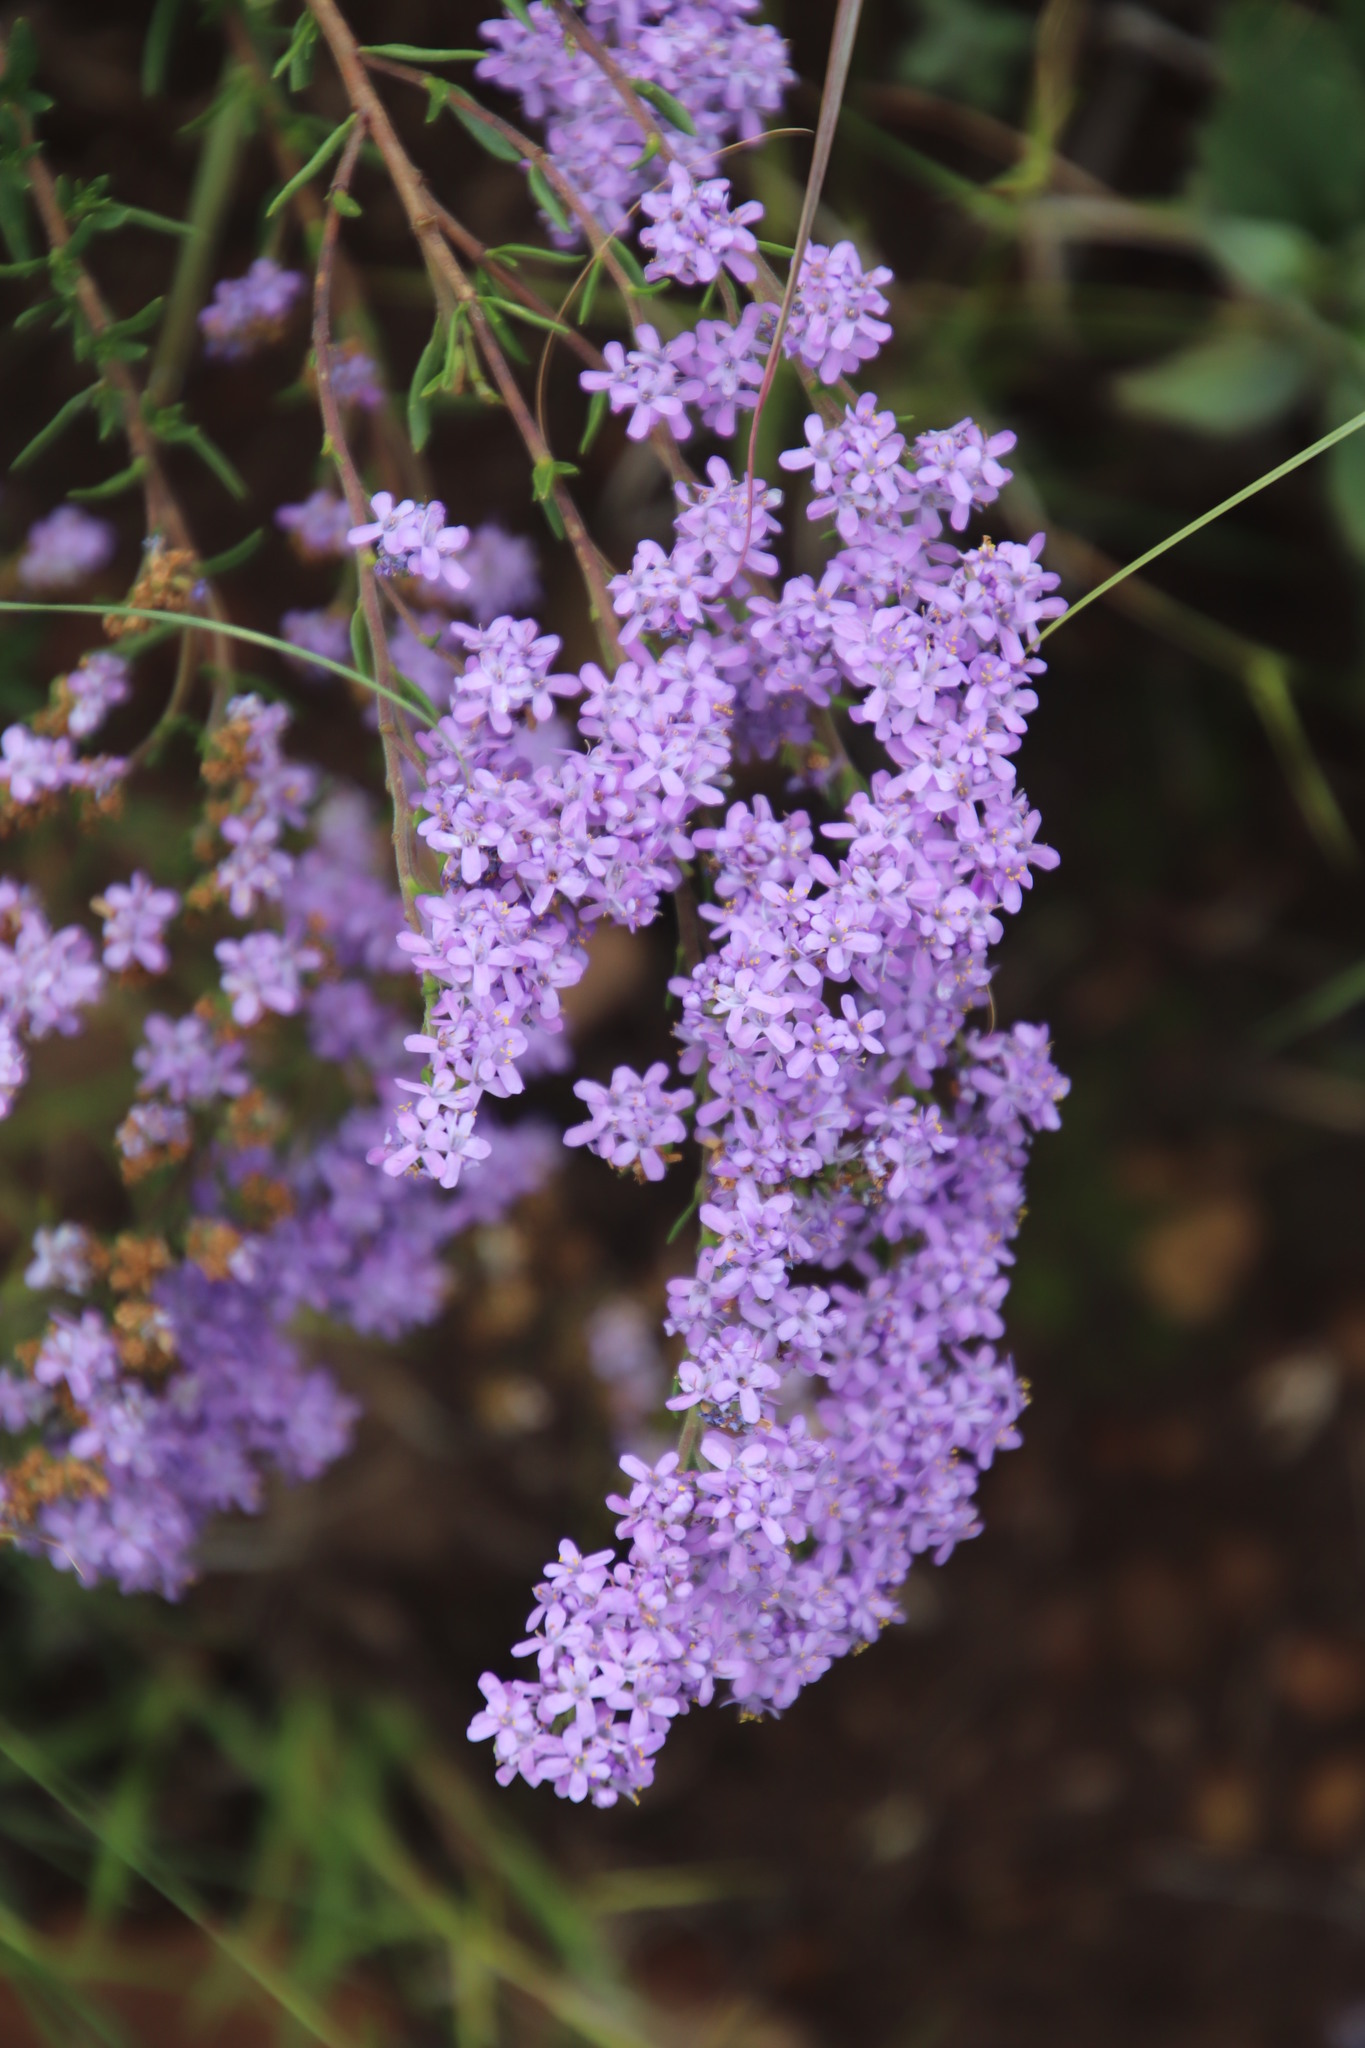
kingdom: Plantae
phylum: Tracheophyta
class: Magnoliopsida
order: Lamiales
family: Scrophulariaceae
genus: Selago
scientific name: Selago flanaganii
